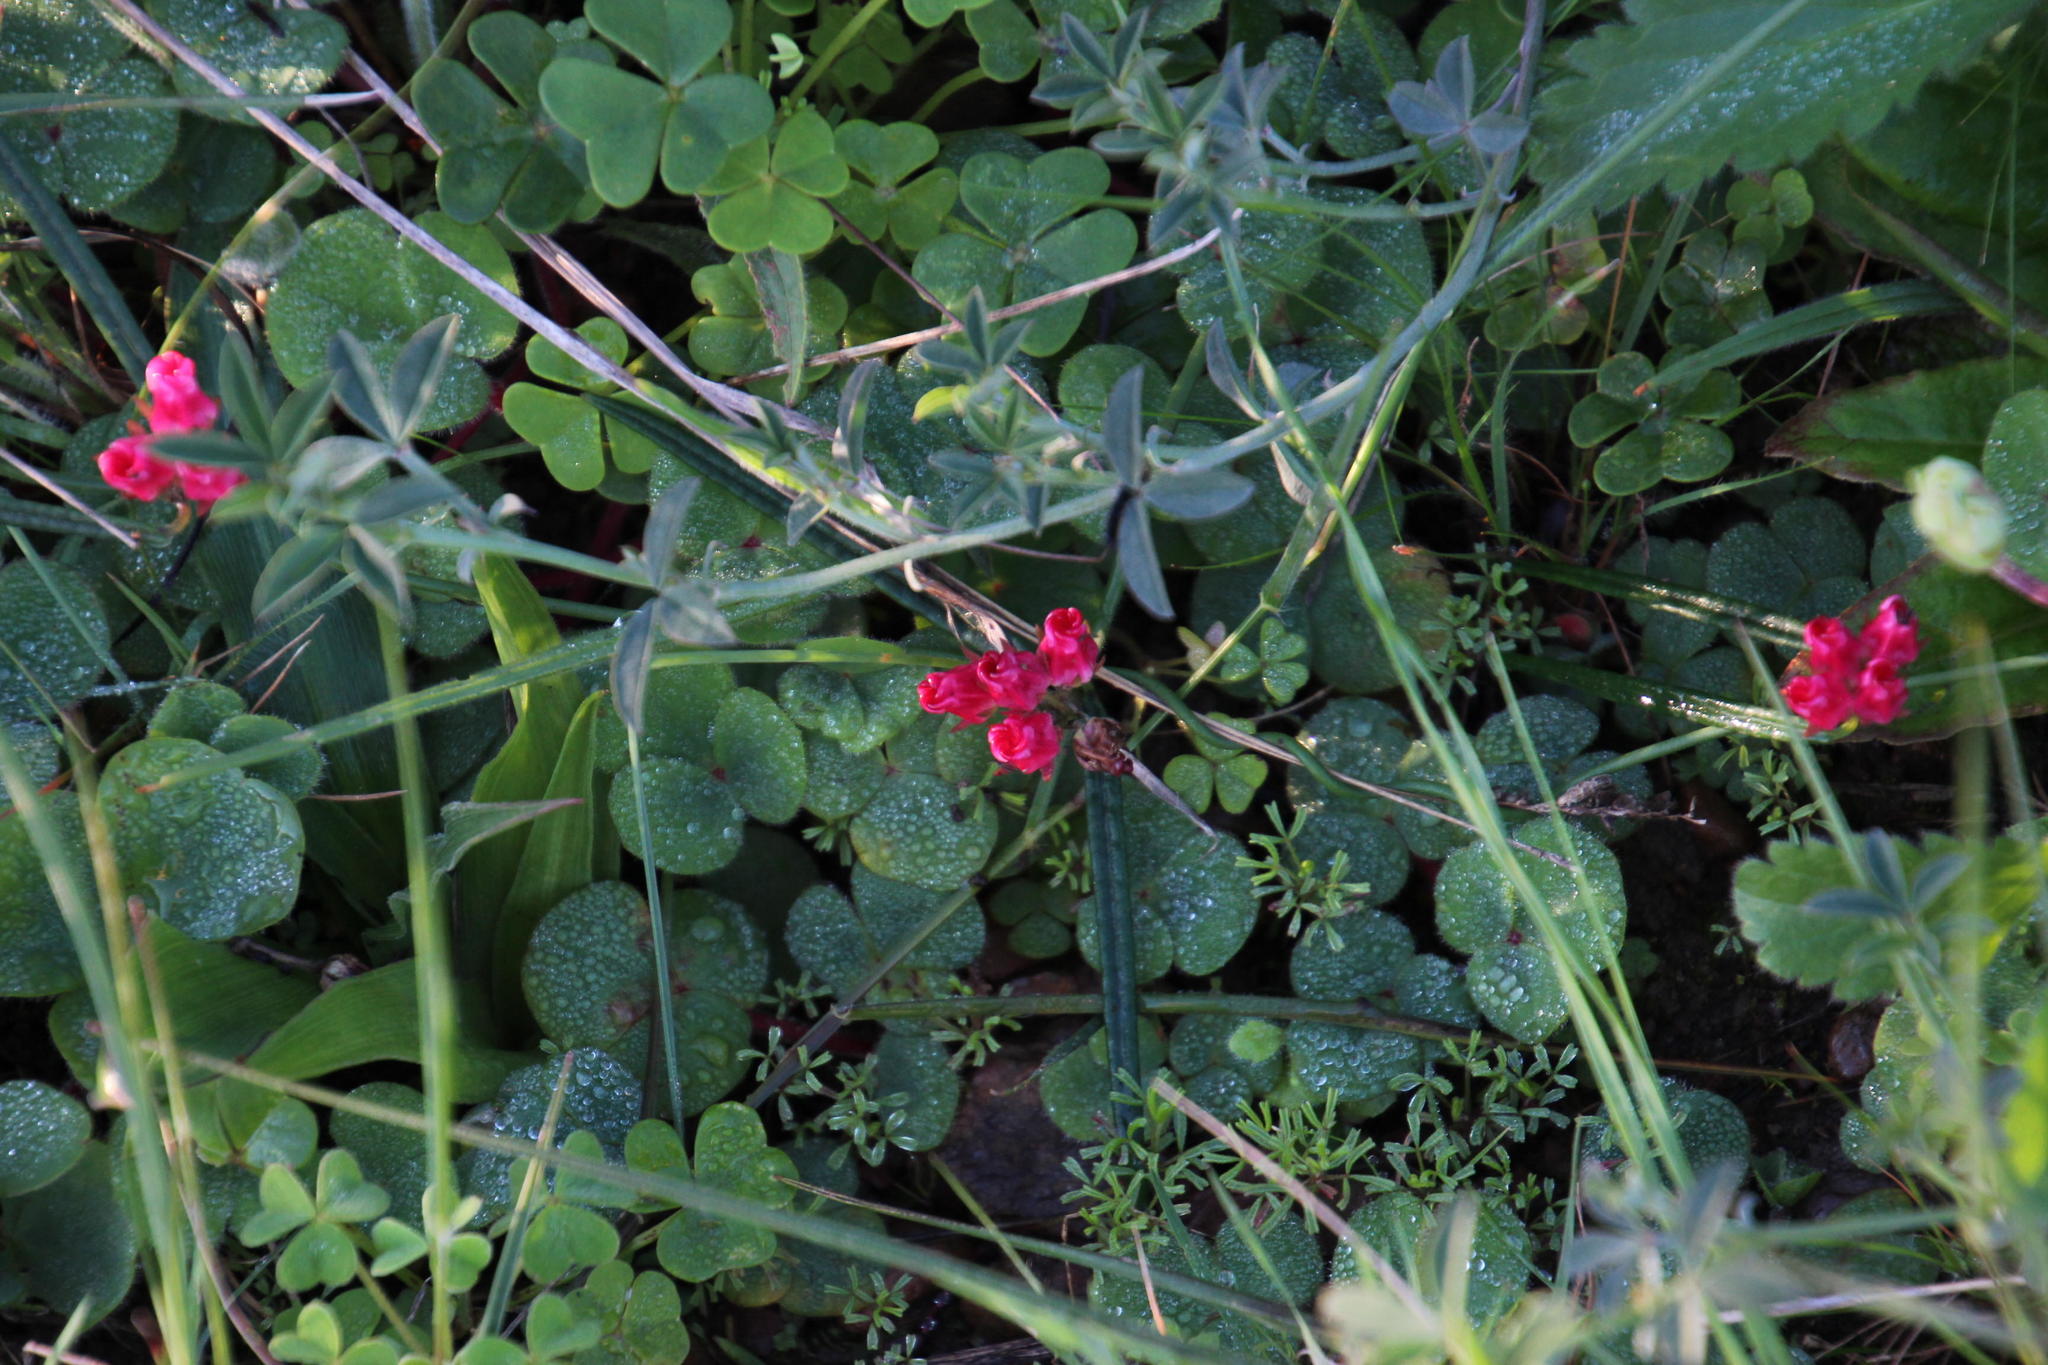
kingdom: Plantae
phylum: Tracheophyta
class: Magnoliopsida
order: Gentianales
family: Apocynaceae
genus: Microloma
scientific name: Microloma tenuifolium
